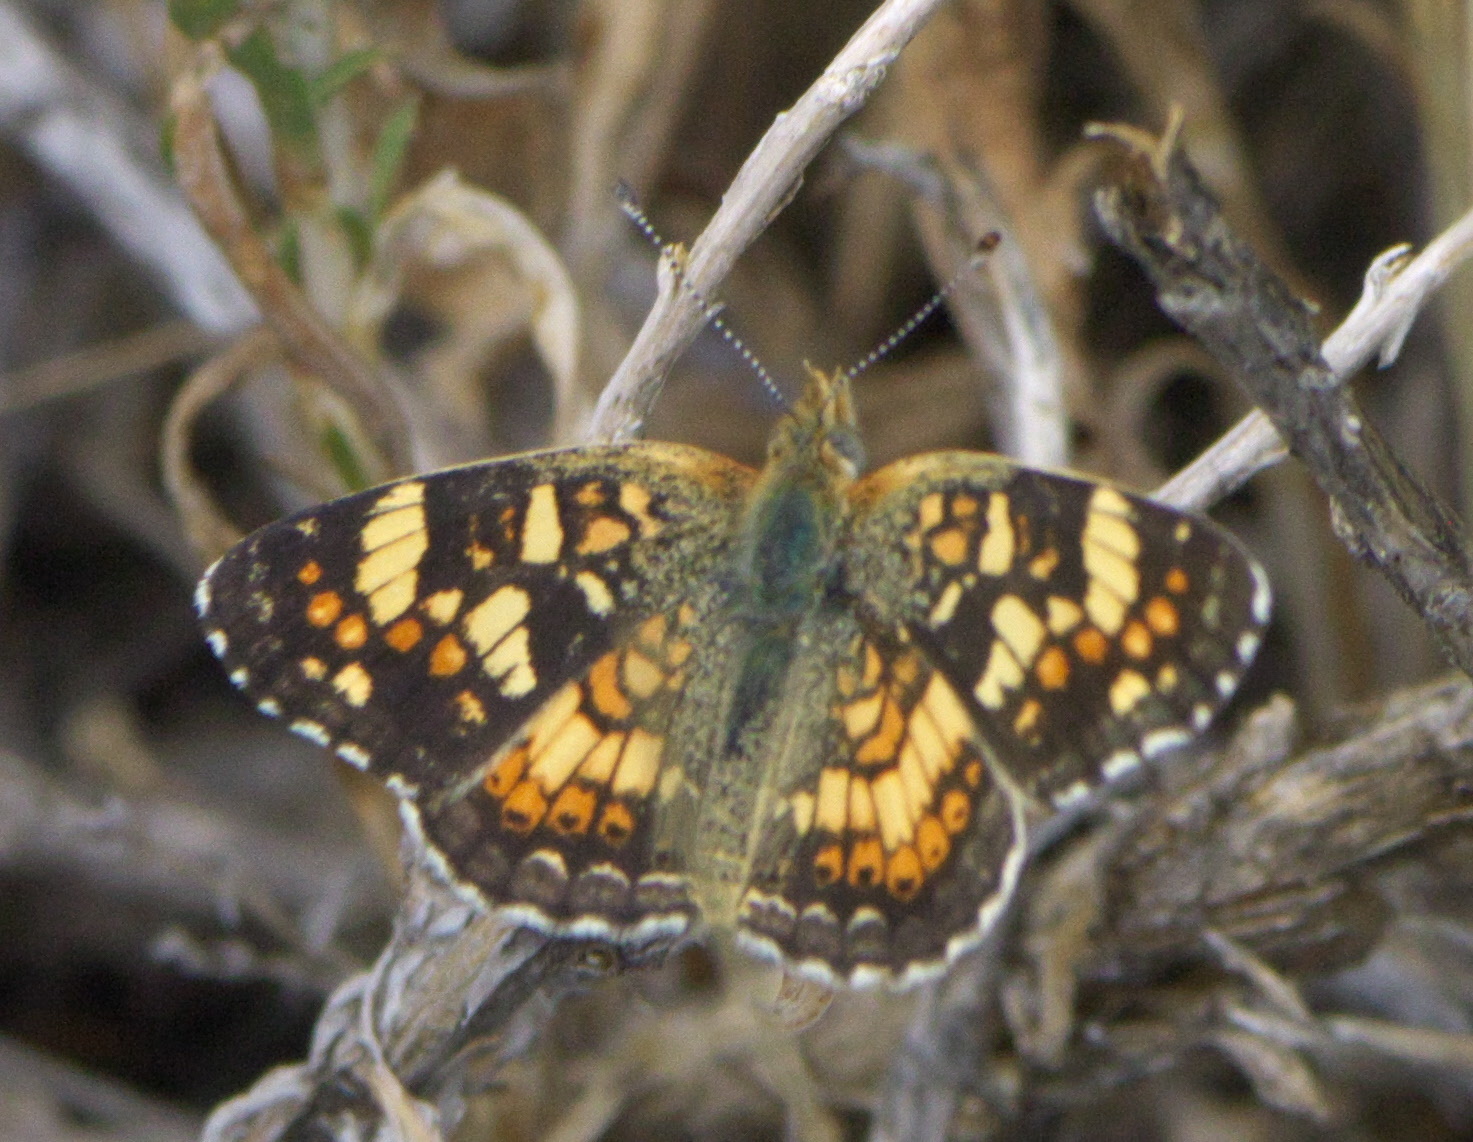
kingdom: Animalia
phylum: Arthropoda
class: Insecta
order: Lepidoptera
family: Nymphalidae
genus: Phyciodes
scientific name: Phyciodes tharos
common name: Pearl crescent
